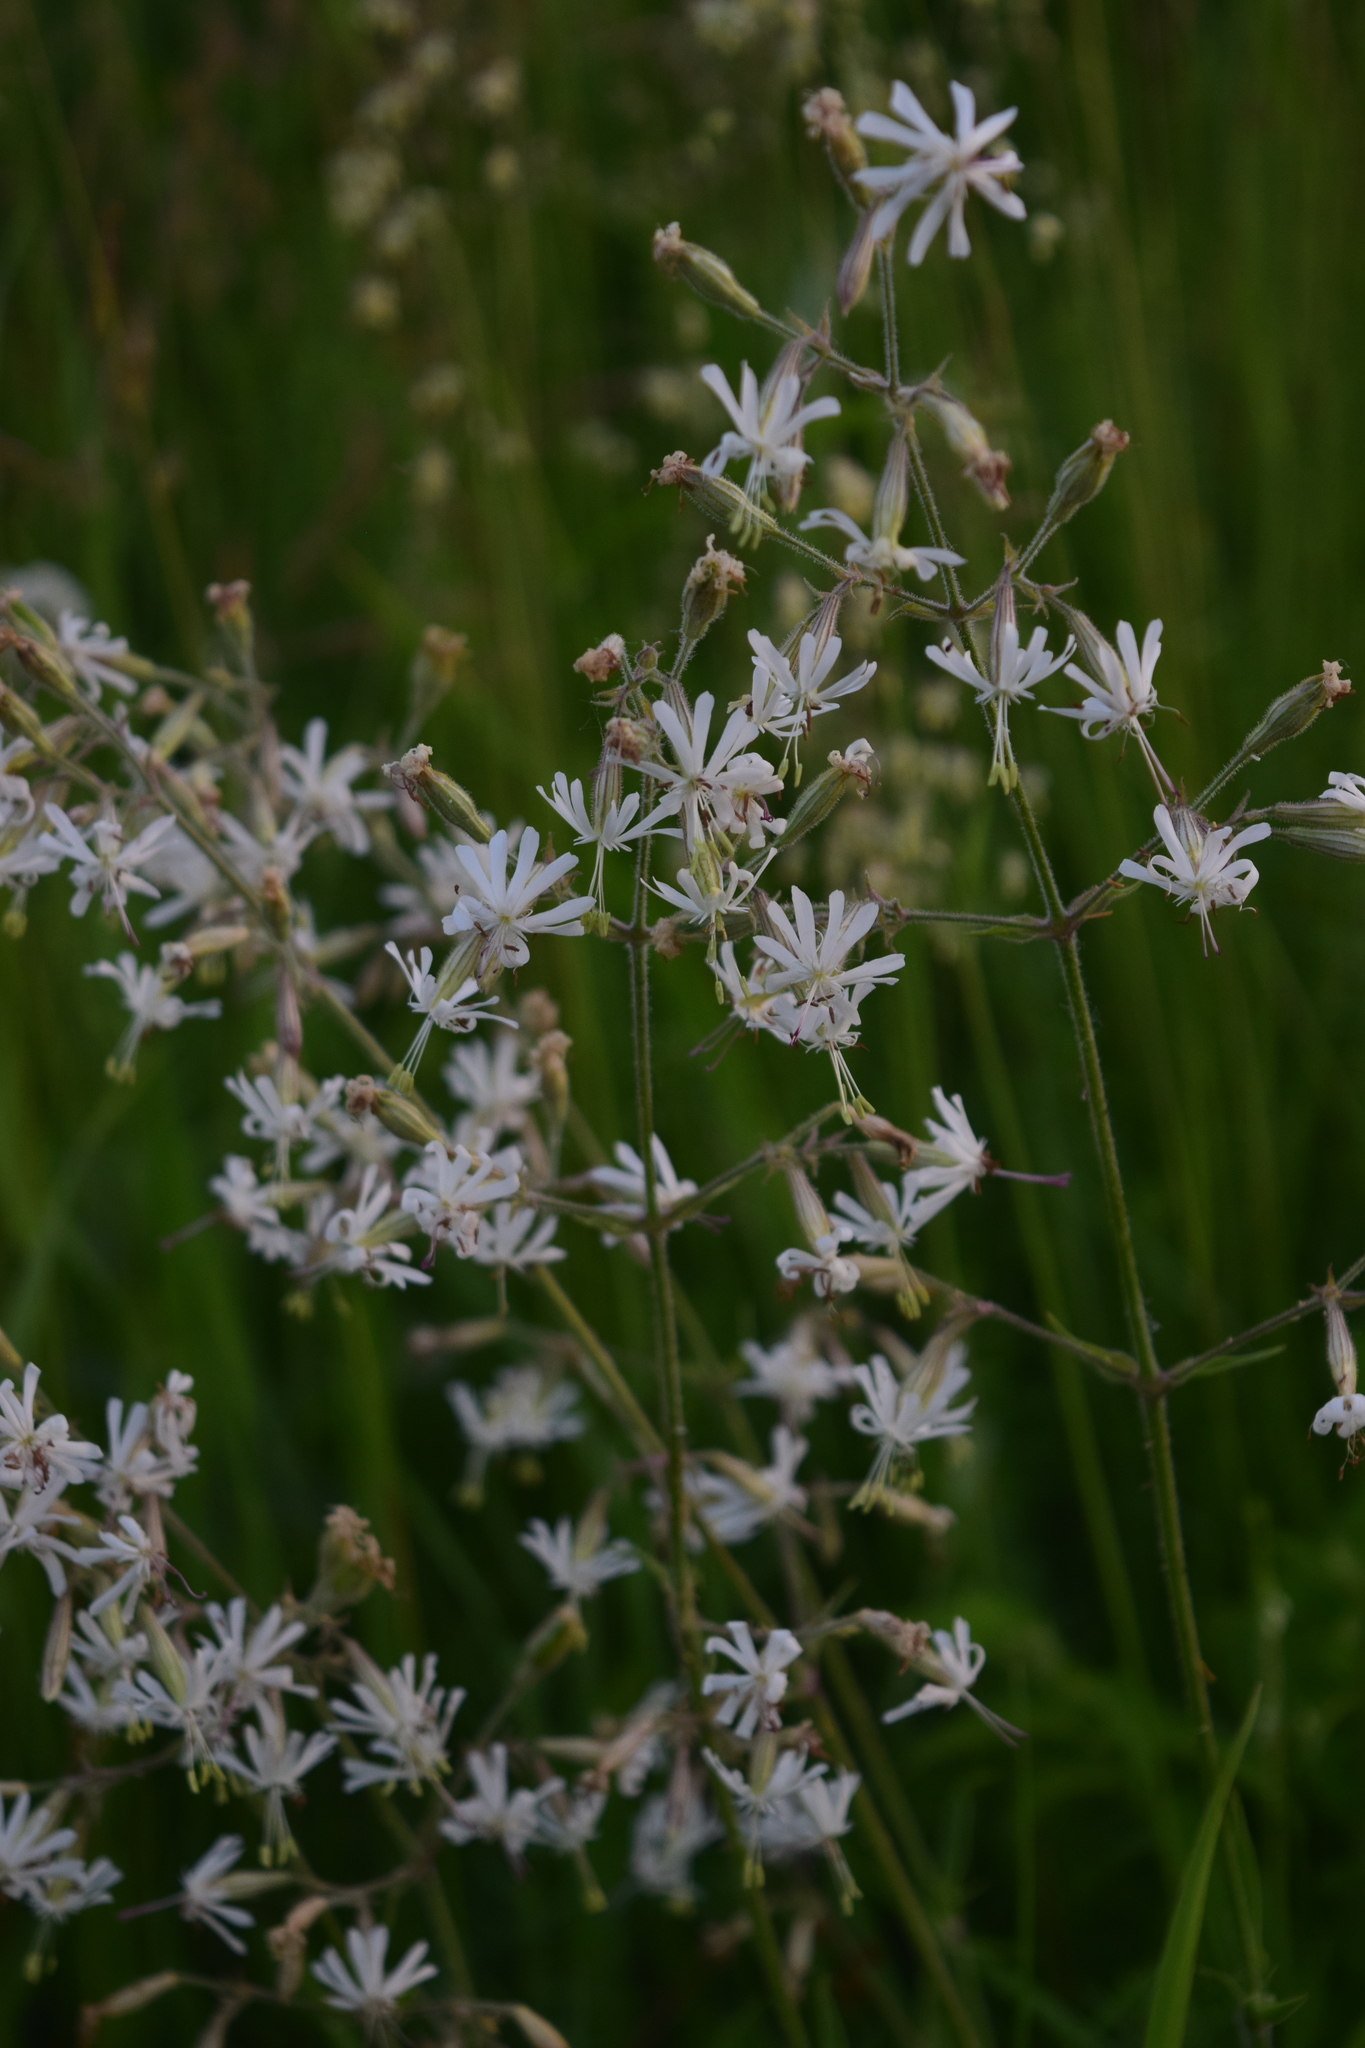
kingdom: Plantae
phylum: Tracheophyta
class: Magnoliopsida
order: Caryophyllales
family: Caryophyllaceae
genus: Silene
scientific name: Silene nutans
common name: Nottingham catchfly
